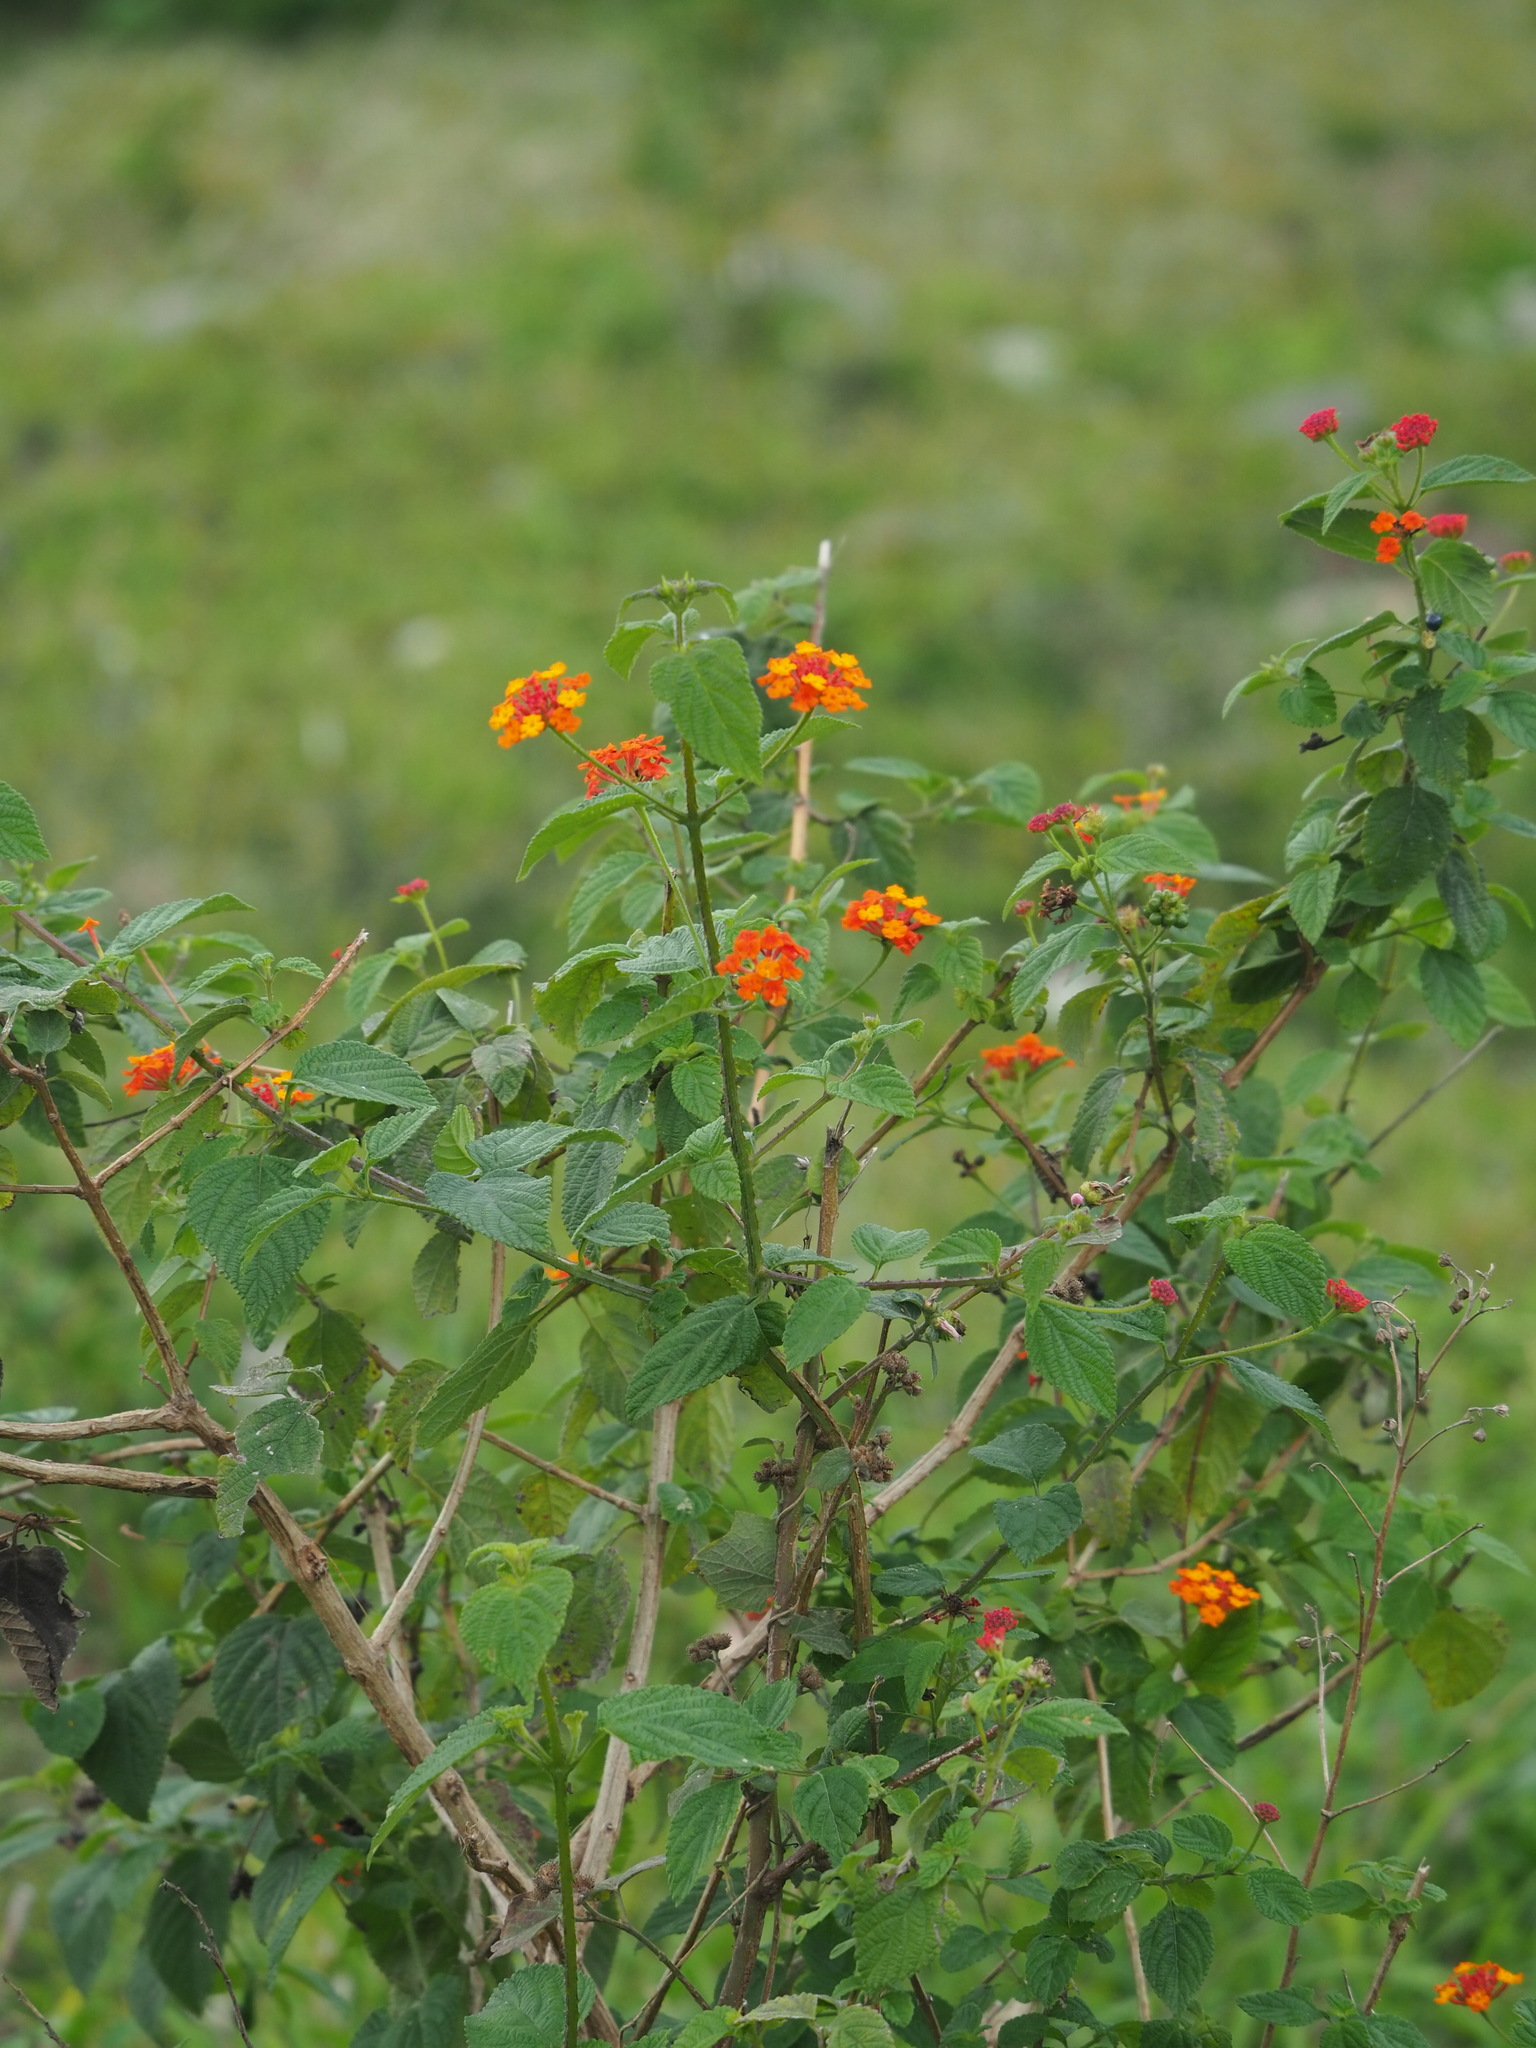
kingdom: Plantae
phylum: Tracheophyta
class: Magnoliopsida
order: Lamiales
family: Verbenaceae
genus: Lantana
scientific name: Lantana camara
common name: Lantana
